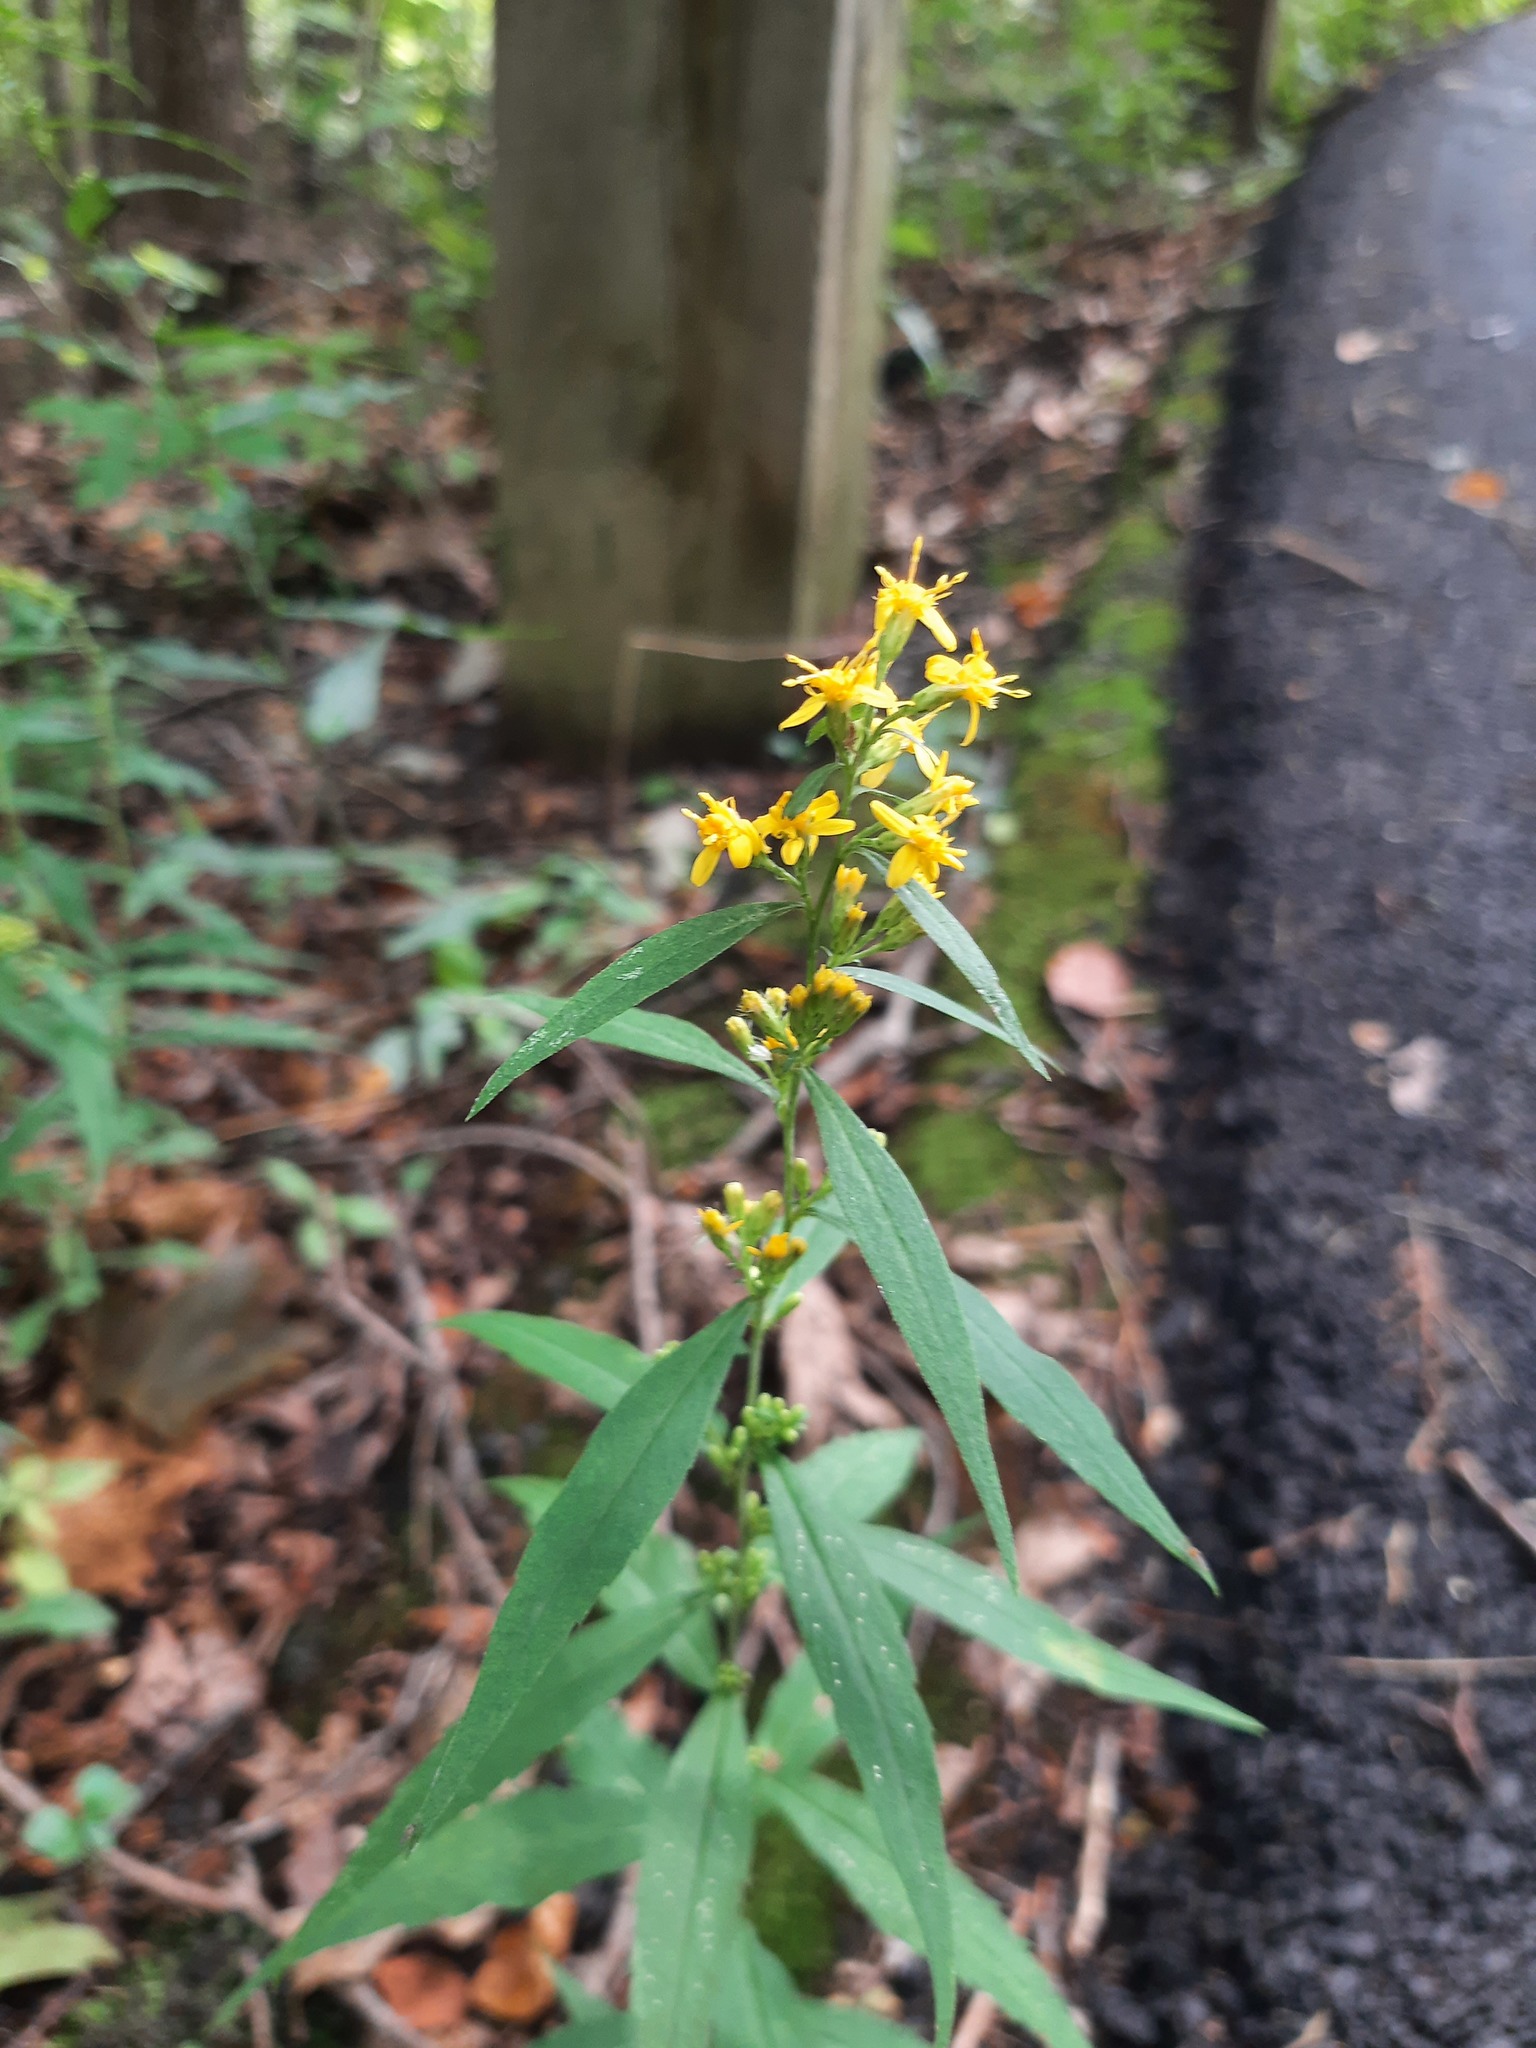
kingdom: Plantae
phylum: Tracheophyta
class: Magnoliopsida
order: Asterales
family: Asteraceae
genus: Solidago
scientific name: Solidago caesia
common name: Woodland goldenrod
